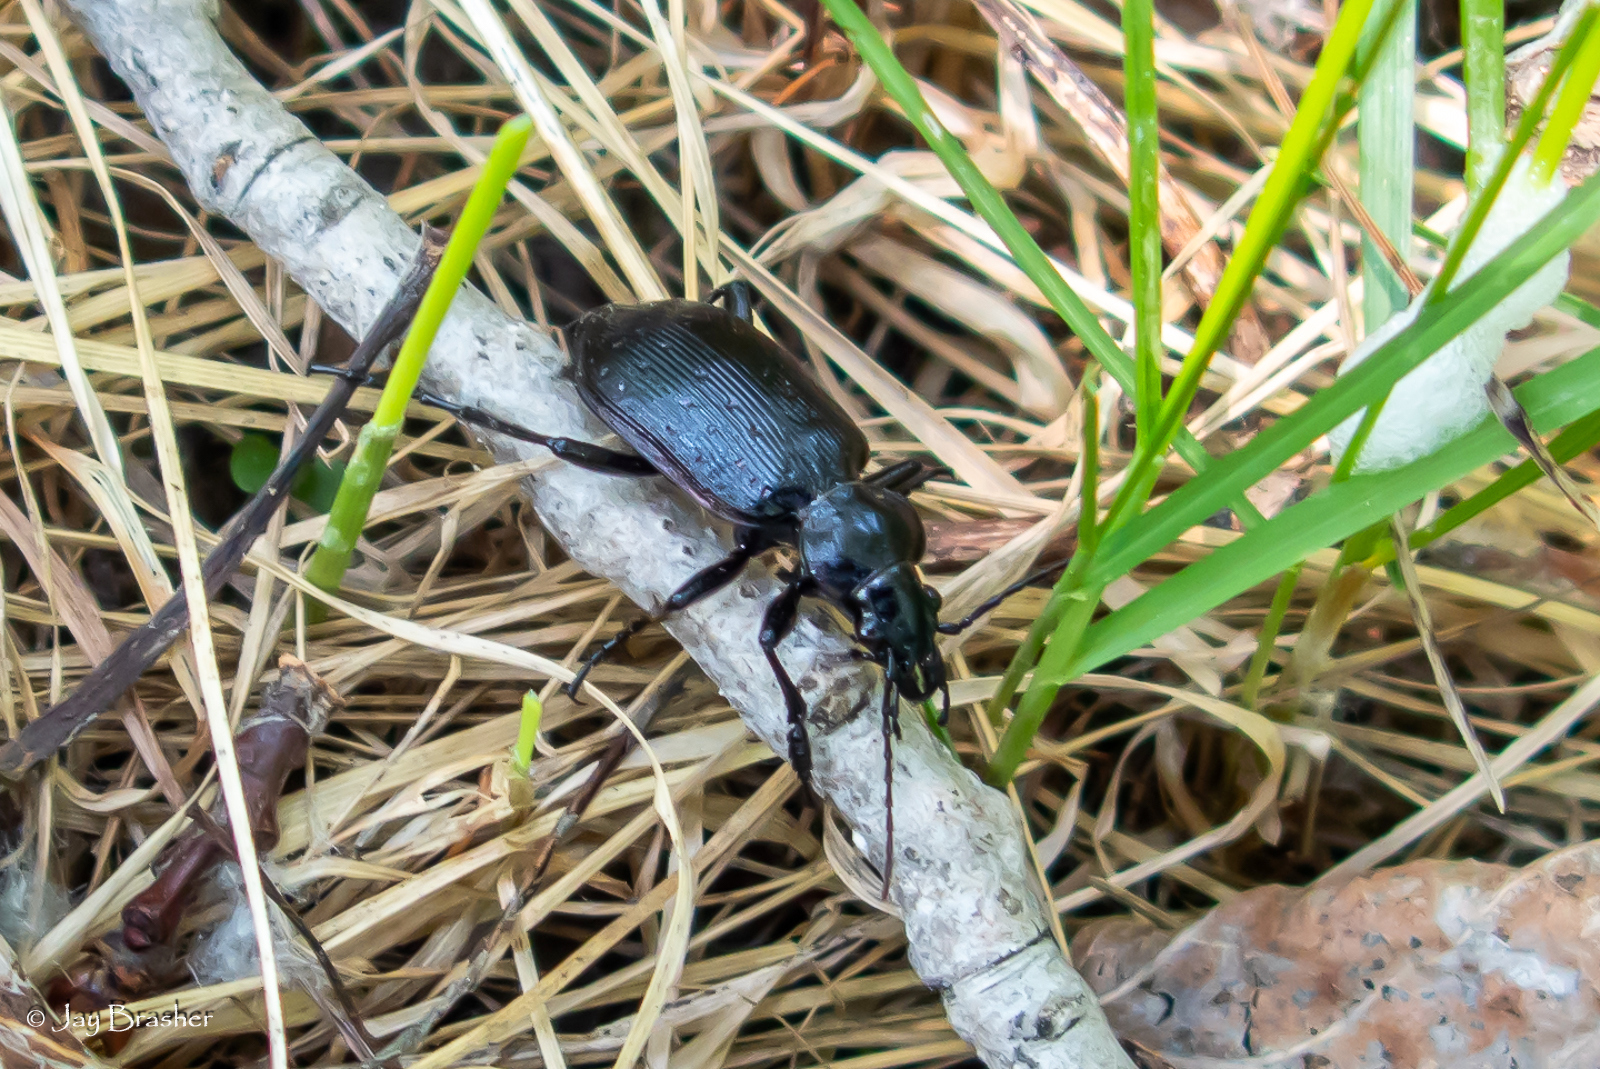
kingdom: Animalia
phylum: Arthropoda
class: Insecta
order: Coleoptera
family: Carabidae
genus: Calosoma
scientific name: Calosoma frigidum
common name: Cold-country caterpillar hunter
